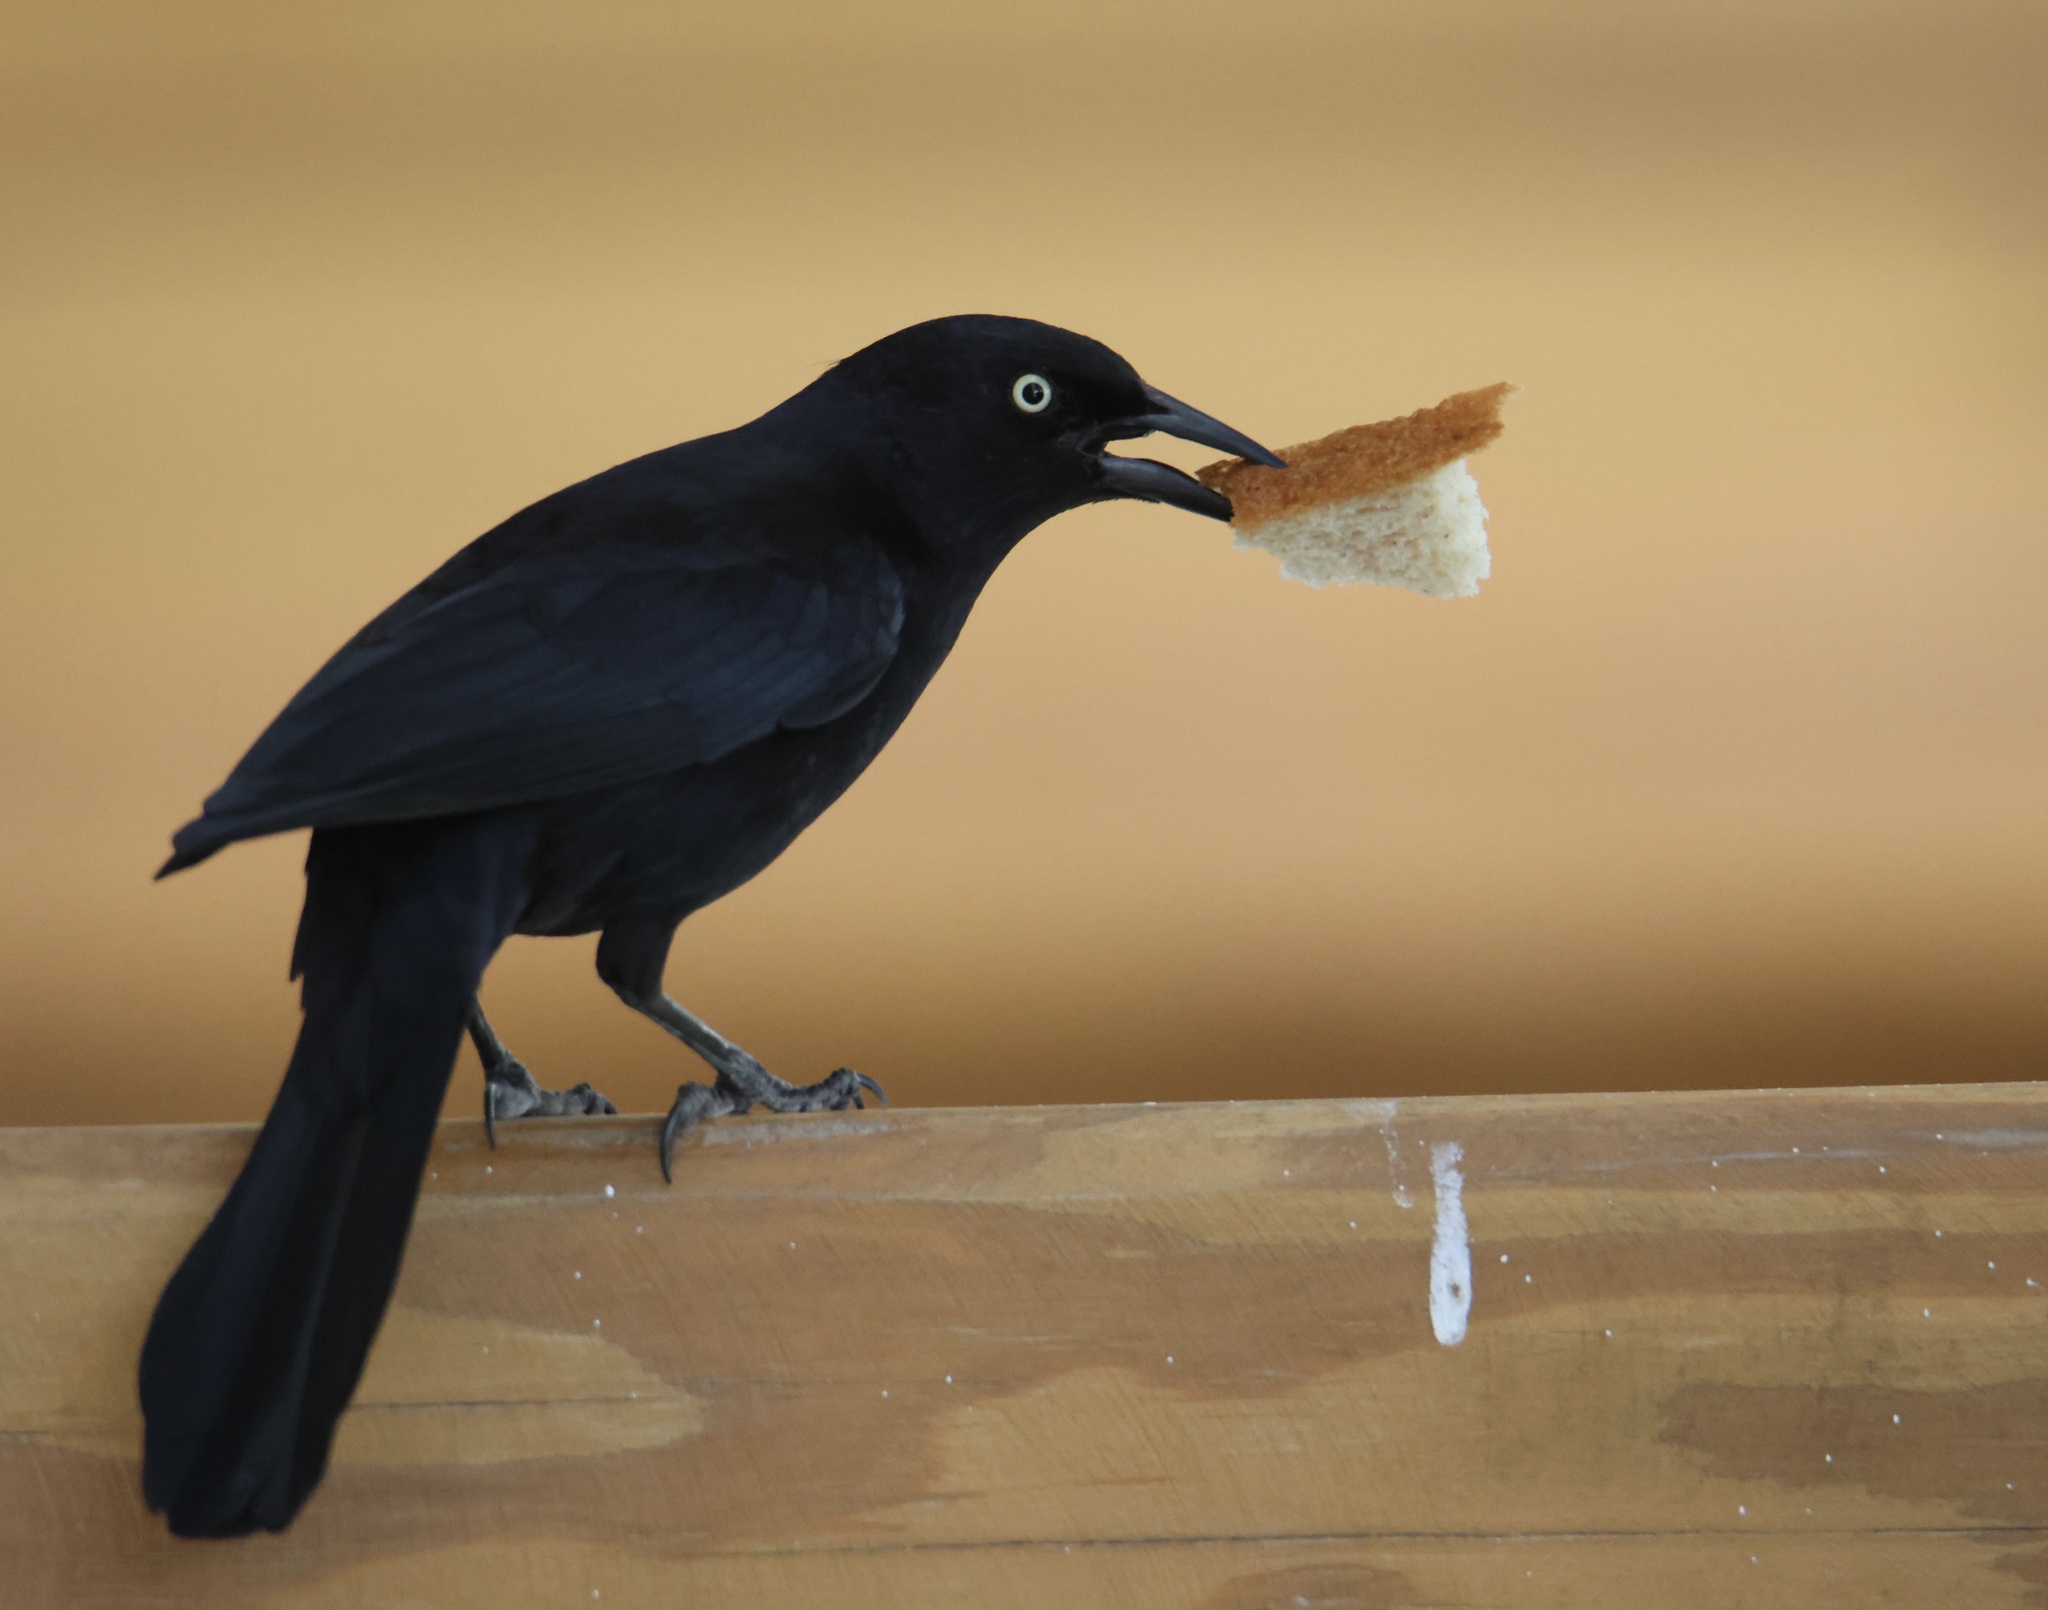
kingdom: Animalia
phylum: Chordata
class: Aves
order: Passeriformes
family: Icteridae
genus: Quiscalus
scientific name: Quiscalus niger
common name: Greater antillean grackle
